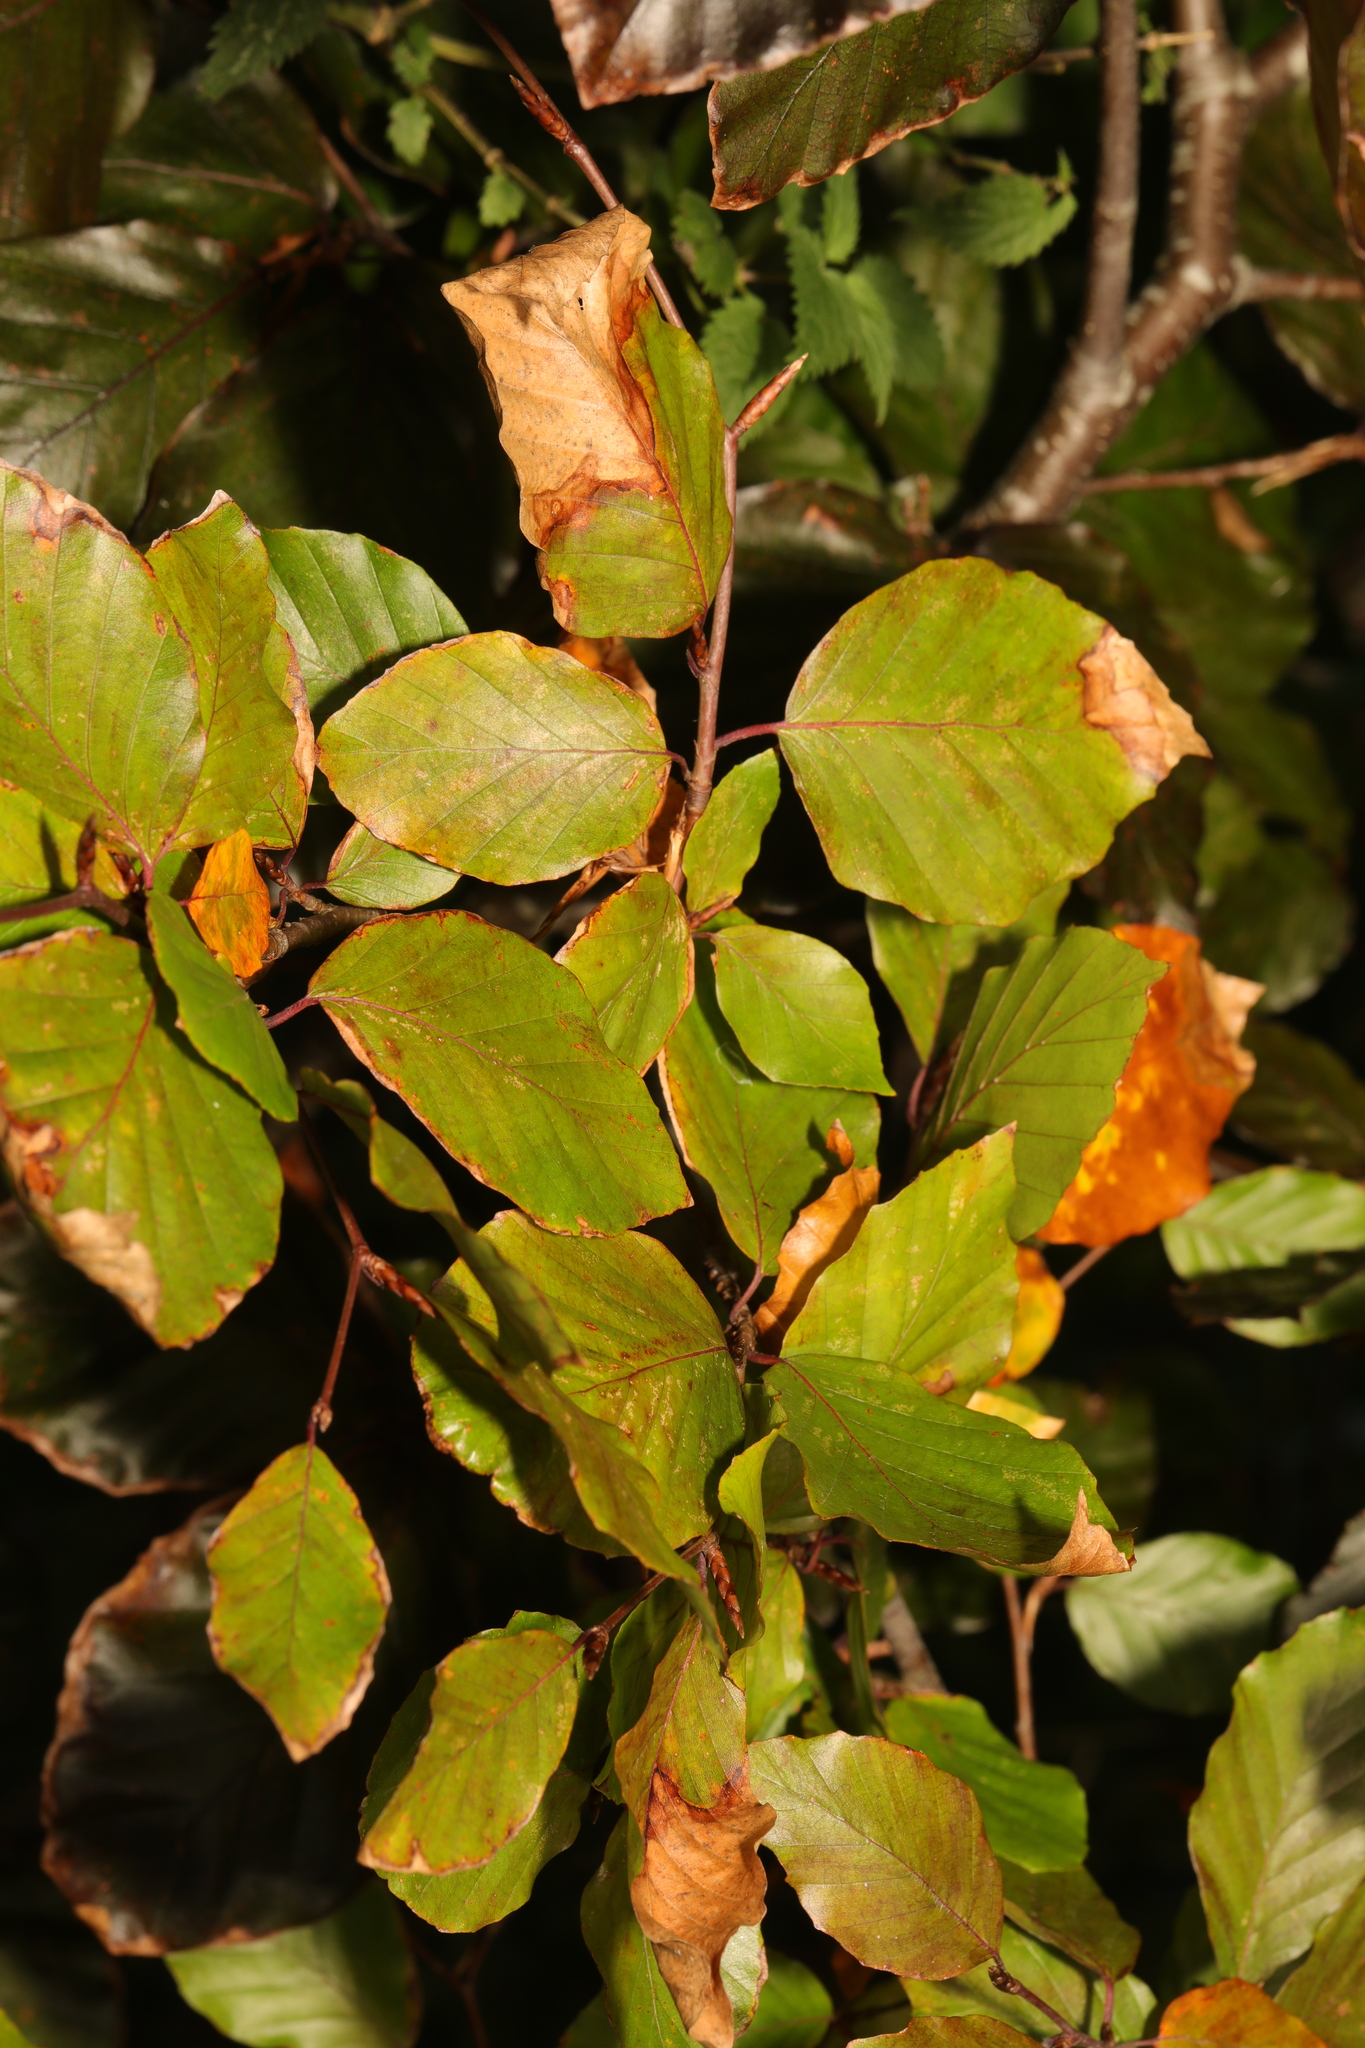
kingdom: Plantae
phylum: Tracheophyta
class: Magnoliopsida
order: Fagales
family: Fagaceae
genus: Fagus
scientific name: Fagus sylvatica
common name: Beech
